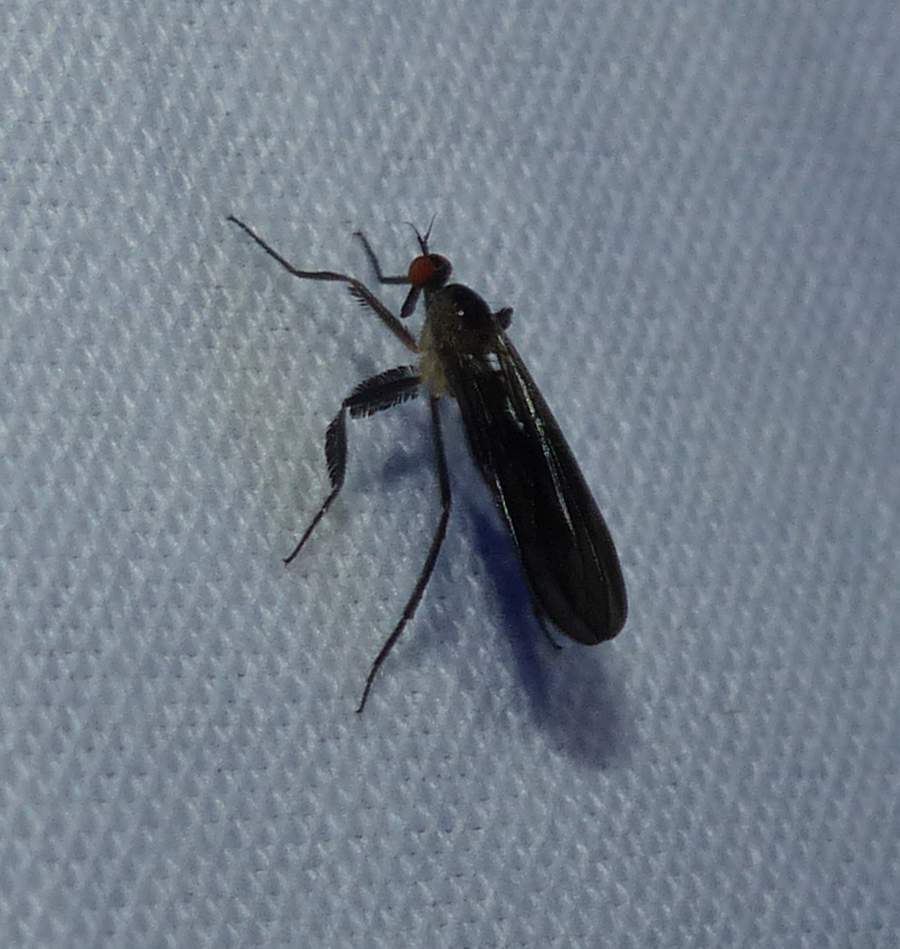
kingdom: Animalia
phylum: Arthropoda
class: Insecta
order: Diptera
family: Empididae
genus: Rhamphomyia
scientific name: Rhamphomyia longicauda
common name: Long-tailed dance fly
